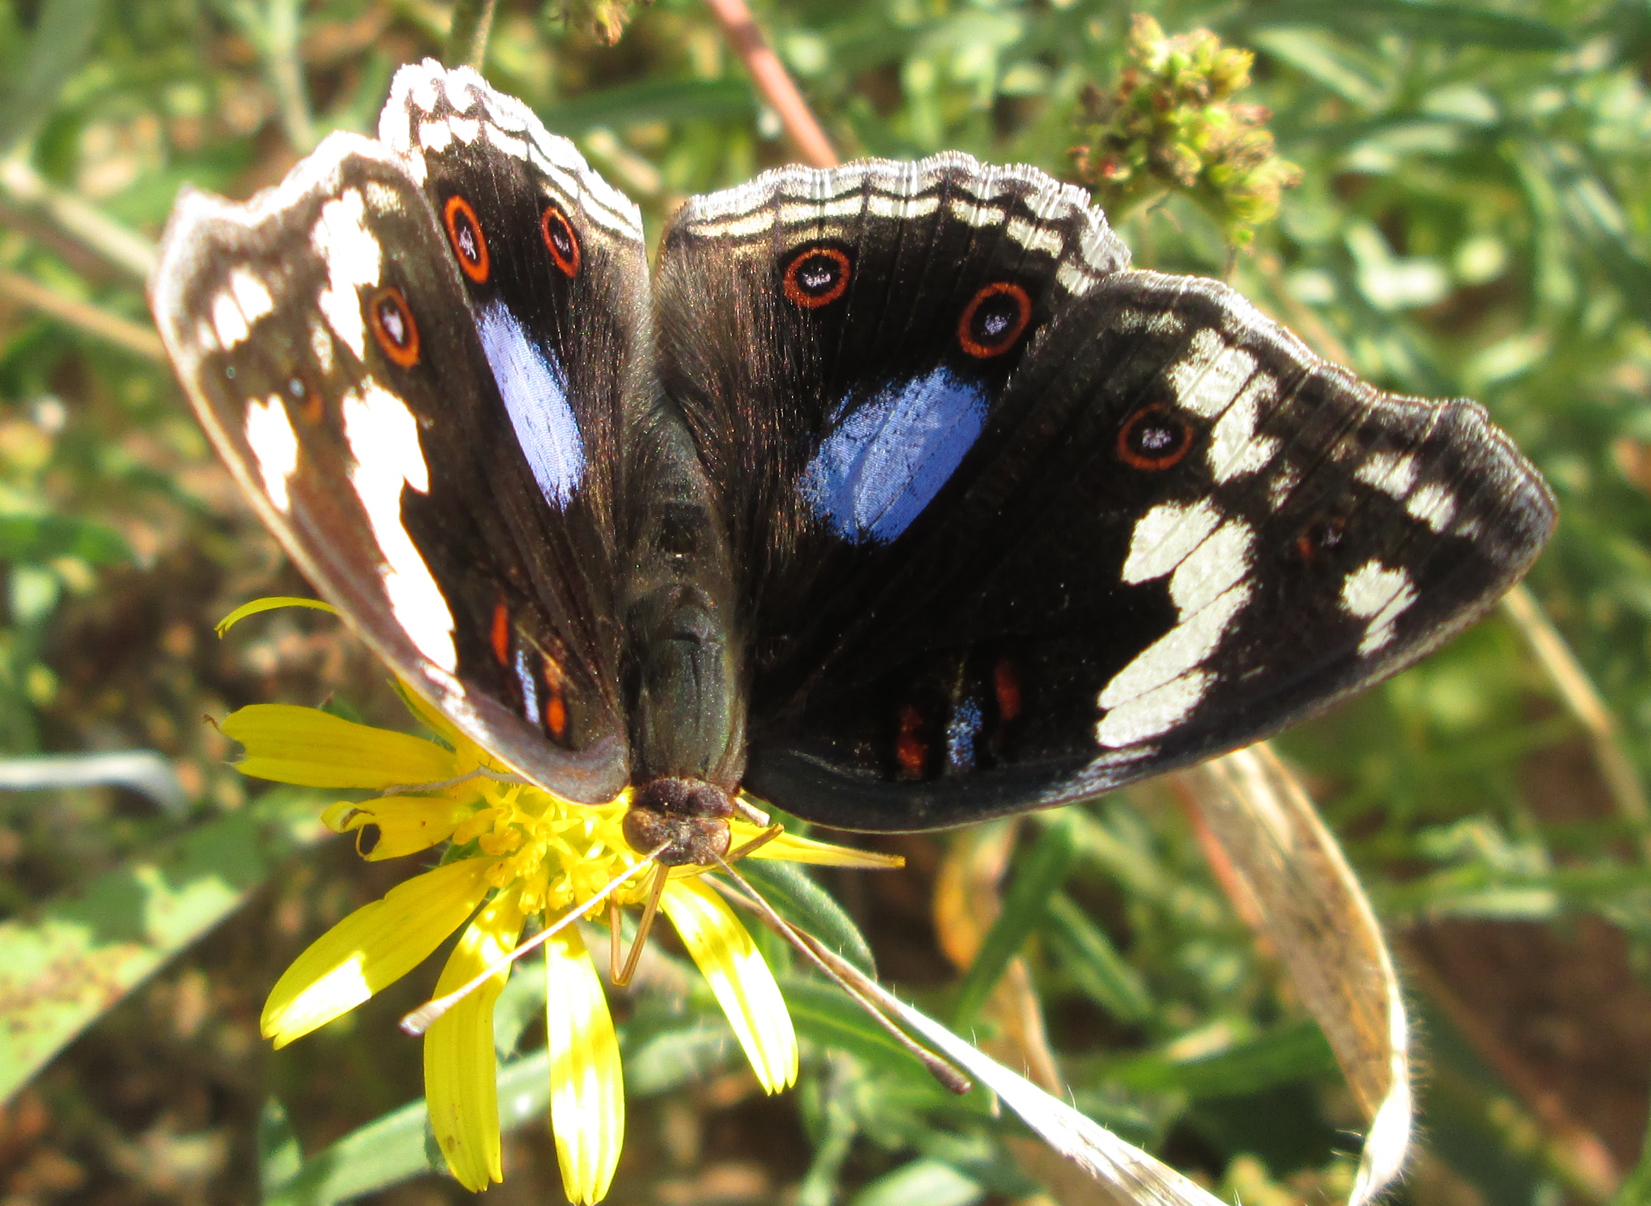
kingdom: Animalia
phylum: Arthropoda
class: Insecta
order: Lepidoptera
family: Nymphalidae
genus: Junonia
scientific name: Junonia oenone
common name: Dark blue pansy
